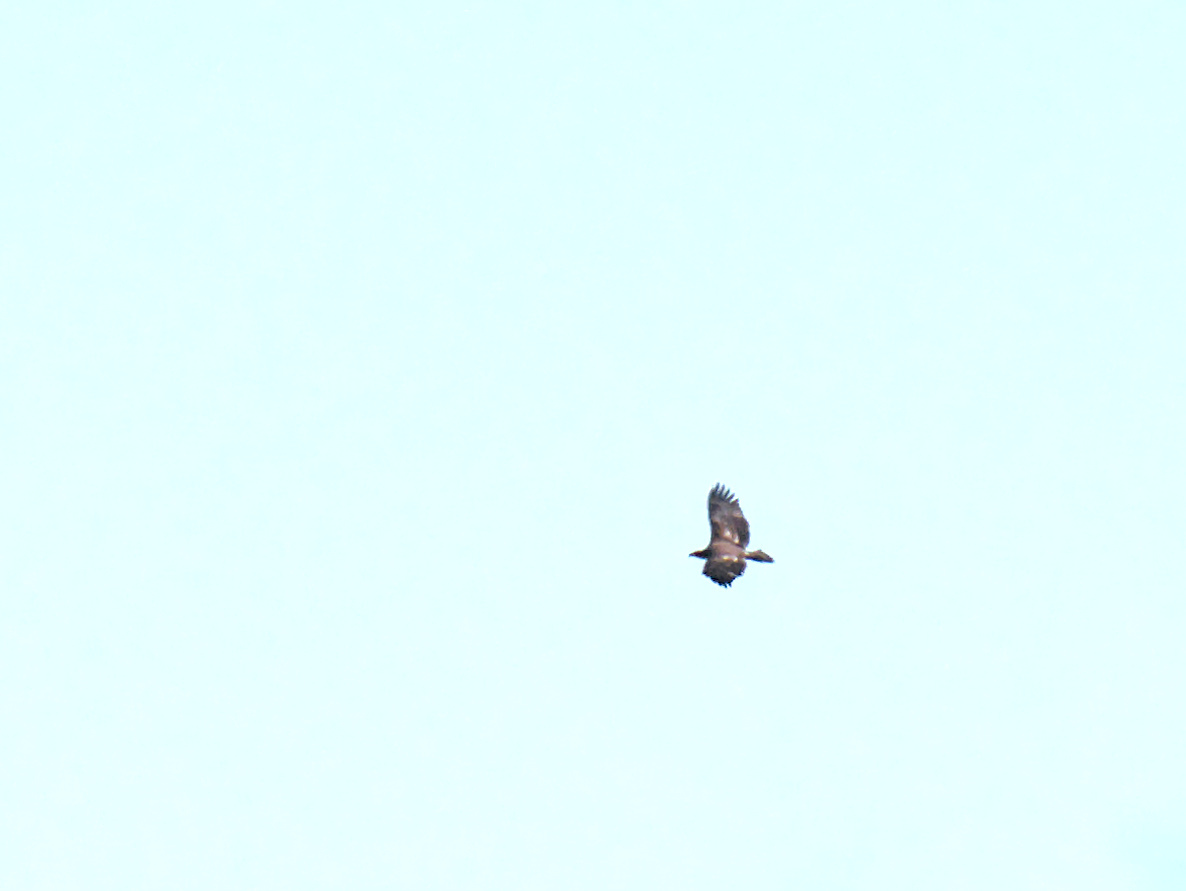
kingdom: Animalia
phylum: Chordata
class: Aves
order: Accipitriformes
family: Accipitridae
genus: Haliaeetus
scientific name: Haliaeetus leucocephalus
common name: Bald eagle
